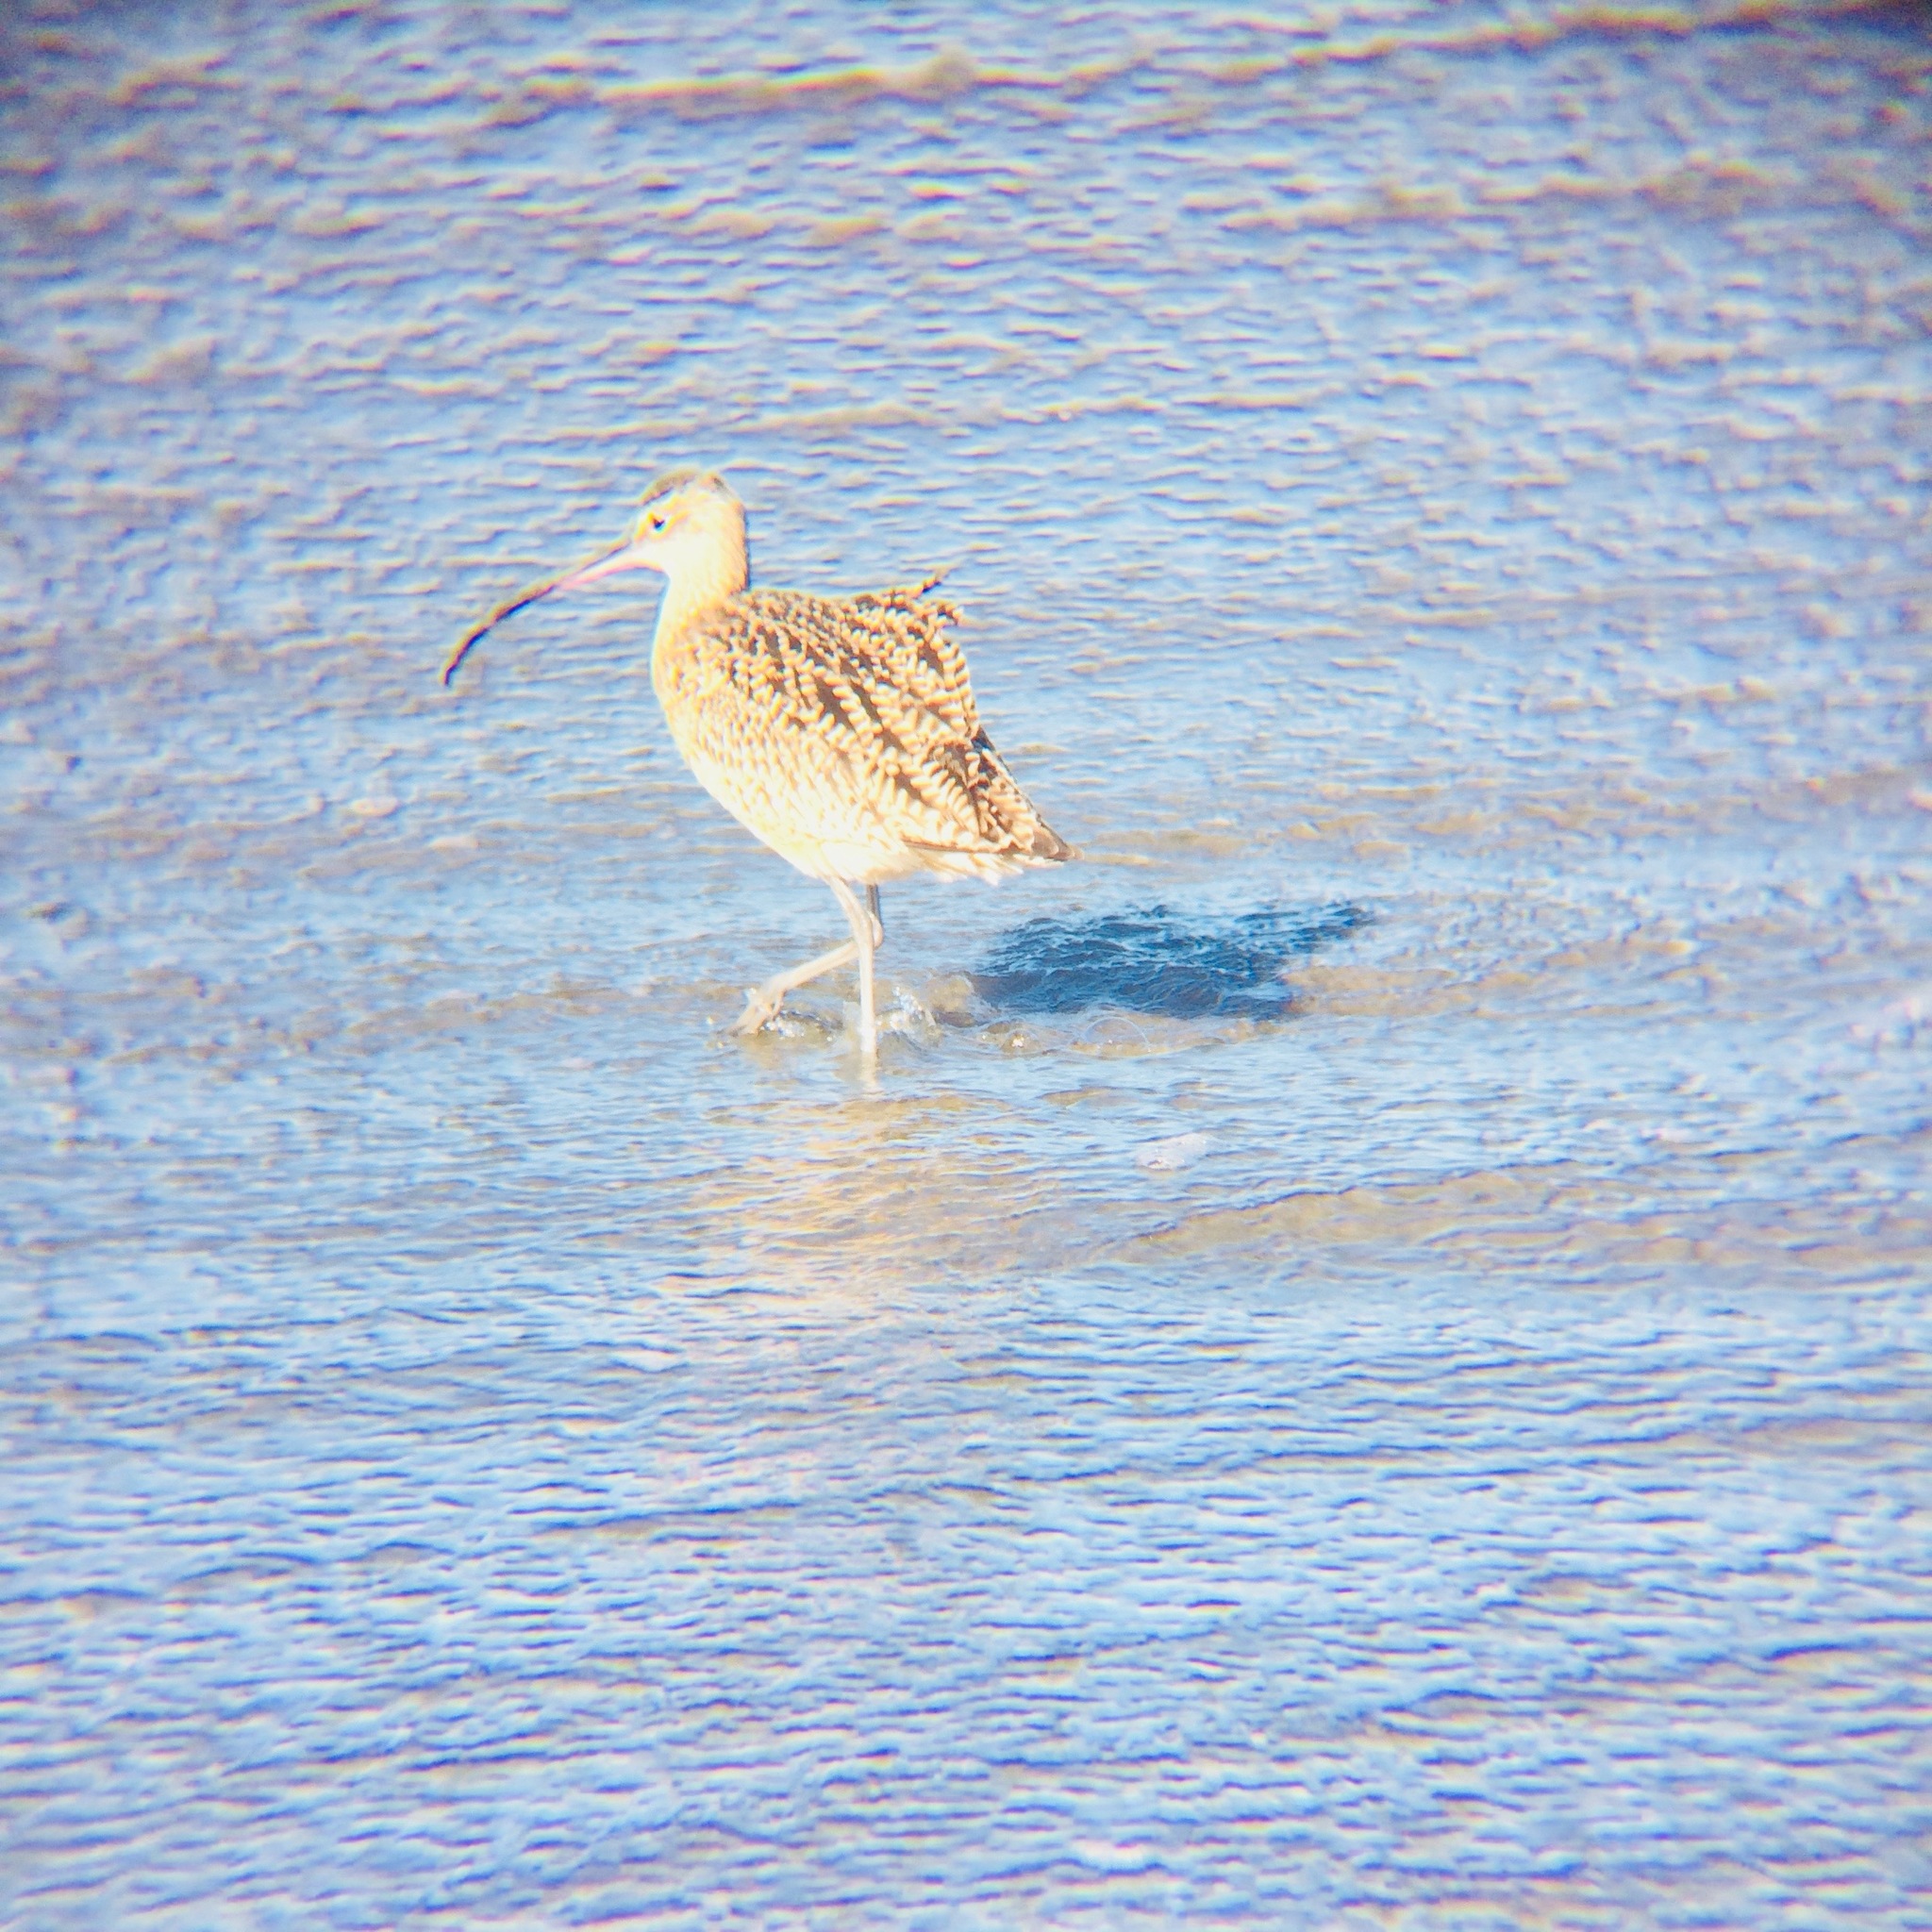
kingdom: Animalia
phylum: Chordata
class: Aves
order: Charadriiformes
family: Scolopacidae
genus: Numenius
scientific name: Numenius americanus
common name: Long-billed curlew
